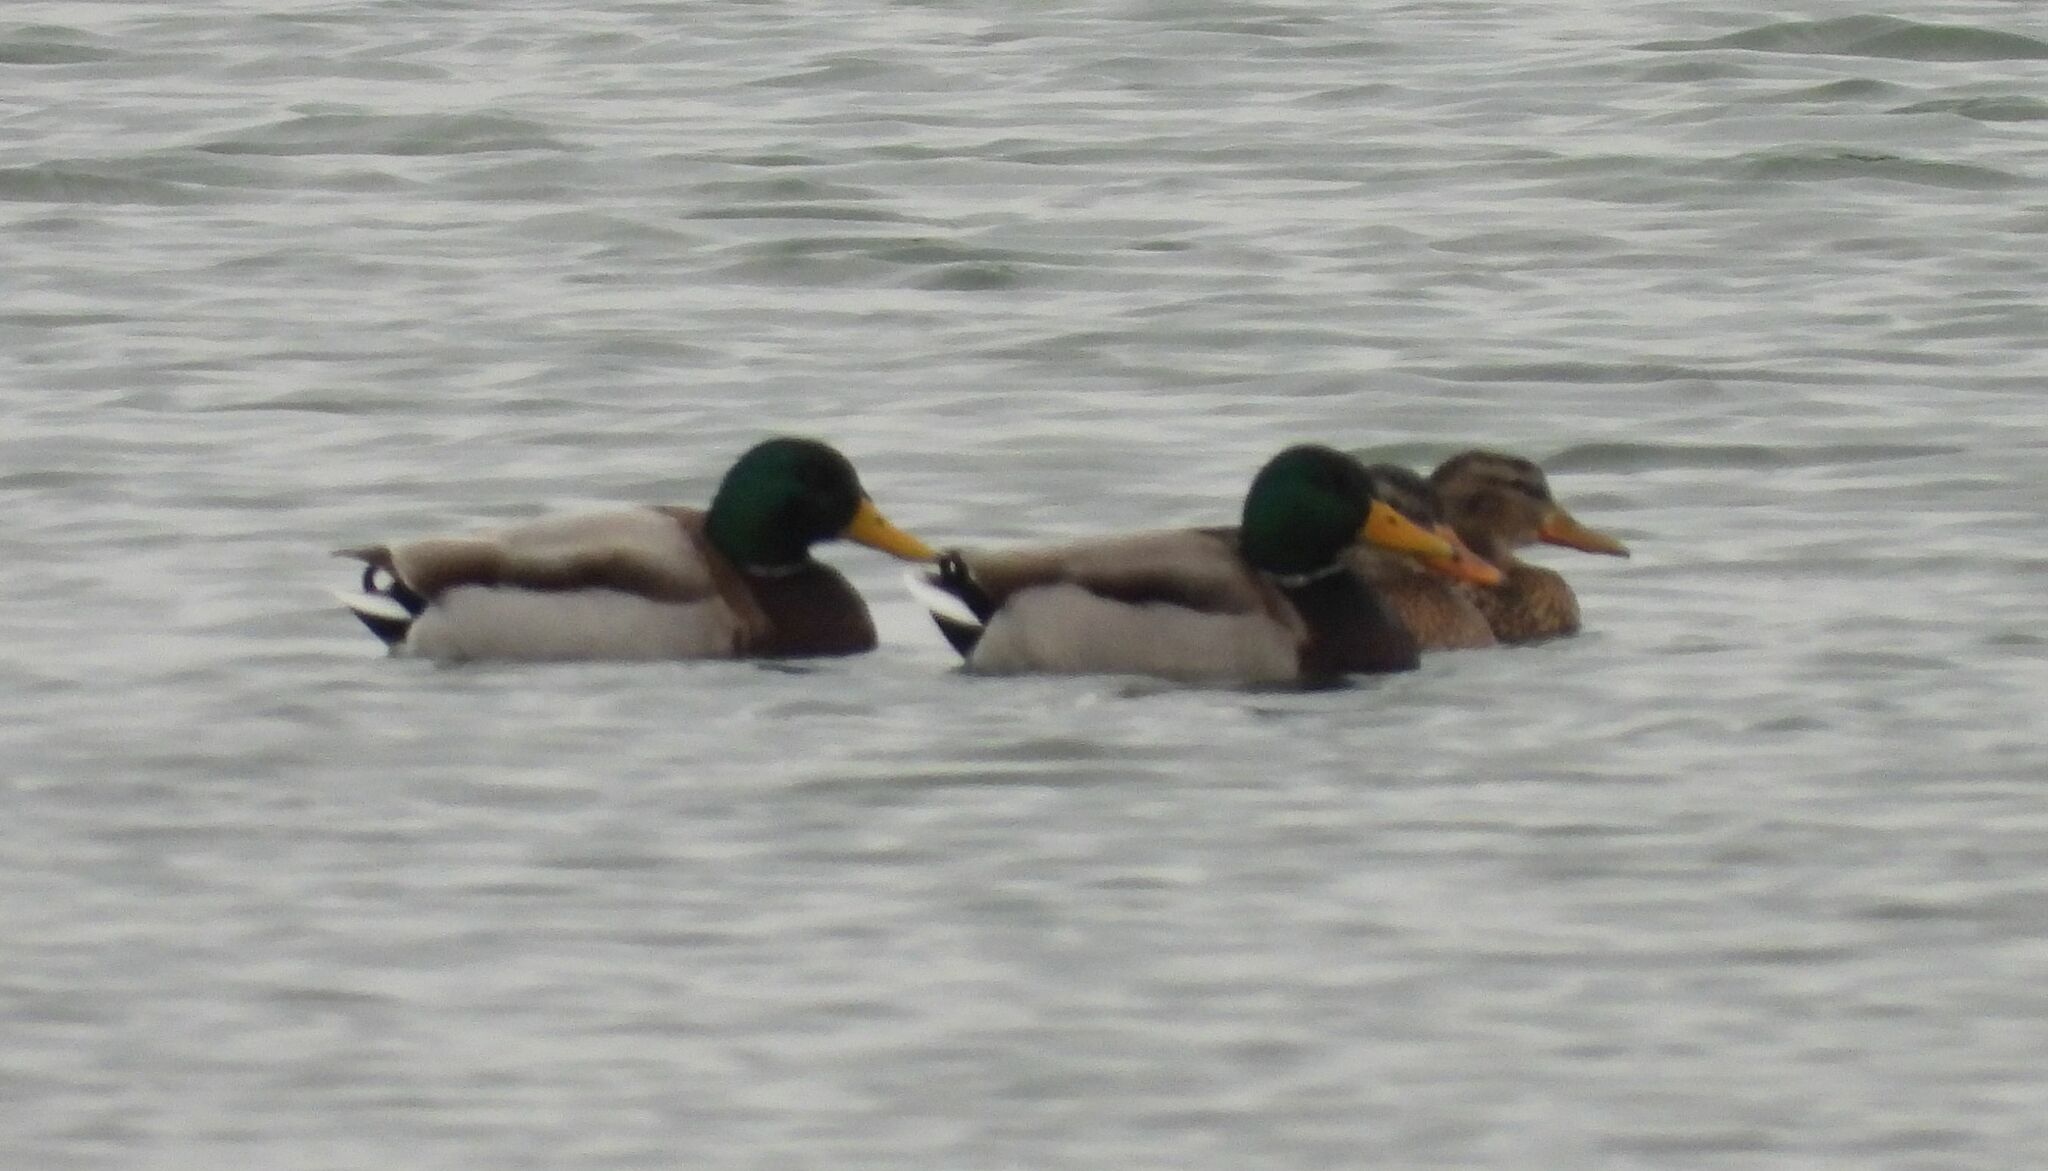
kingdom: Animalia
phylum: Chordata
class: Aves
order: Anseriformes
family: Anatidae
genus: Anas
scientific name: Anas platyrhynchos
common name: Mallard
